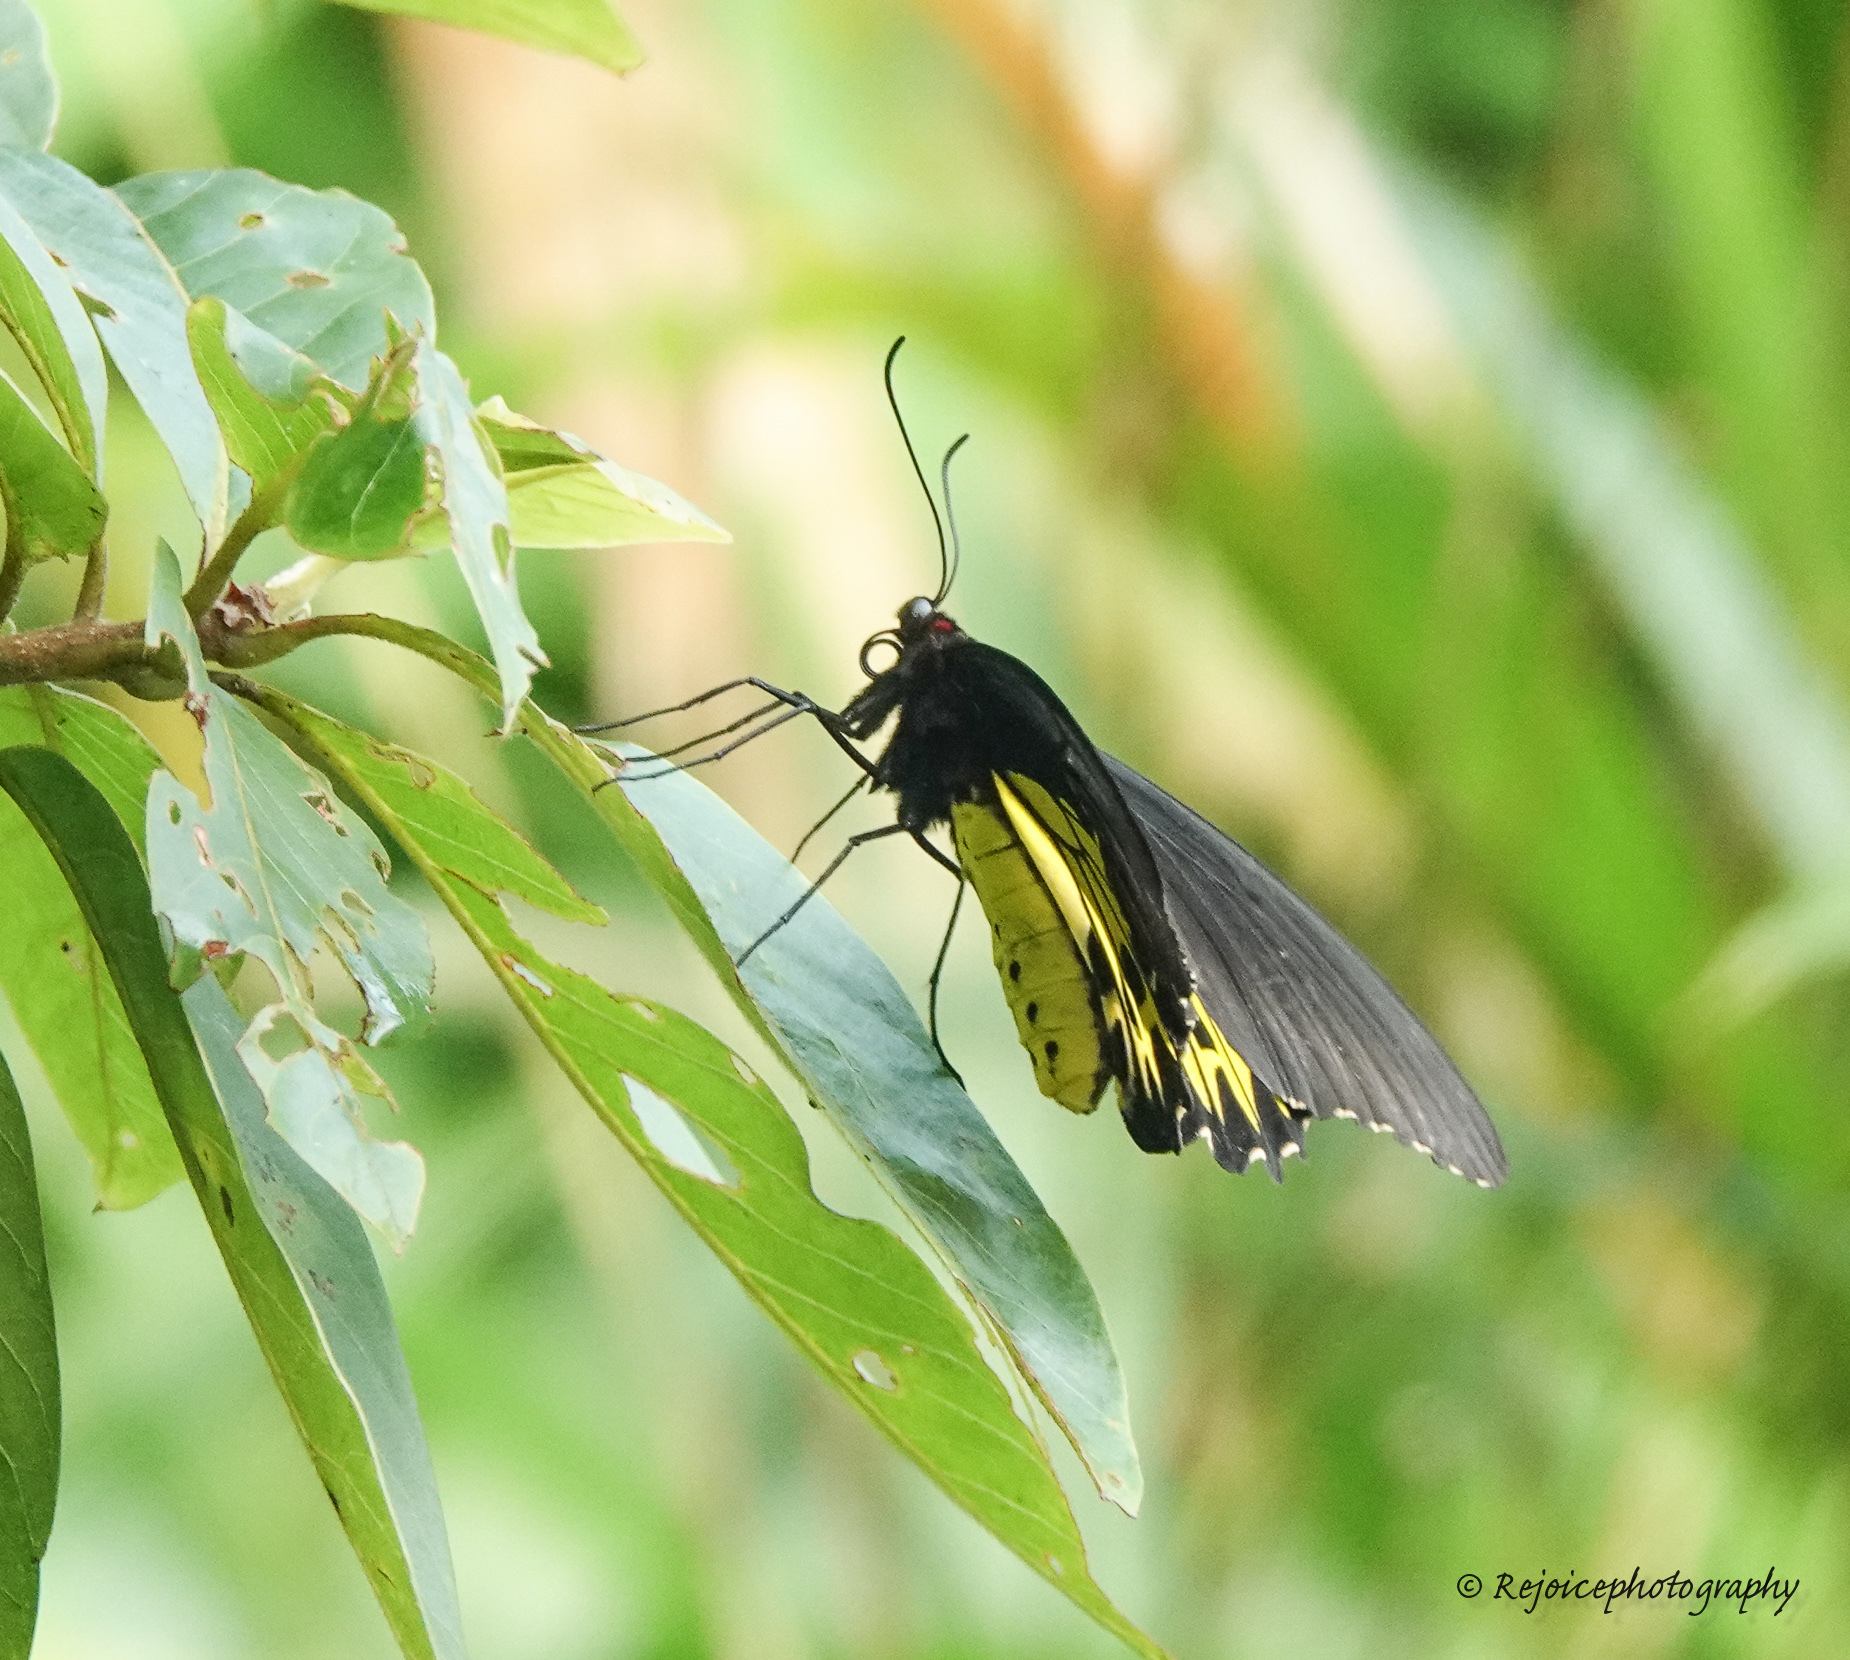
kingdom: Animalia
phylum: Arthropoda
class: Insecta
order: Lepidoptera
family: Papilionidae
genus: Troides
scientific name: Troides helena
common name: Common birdwing
